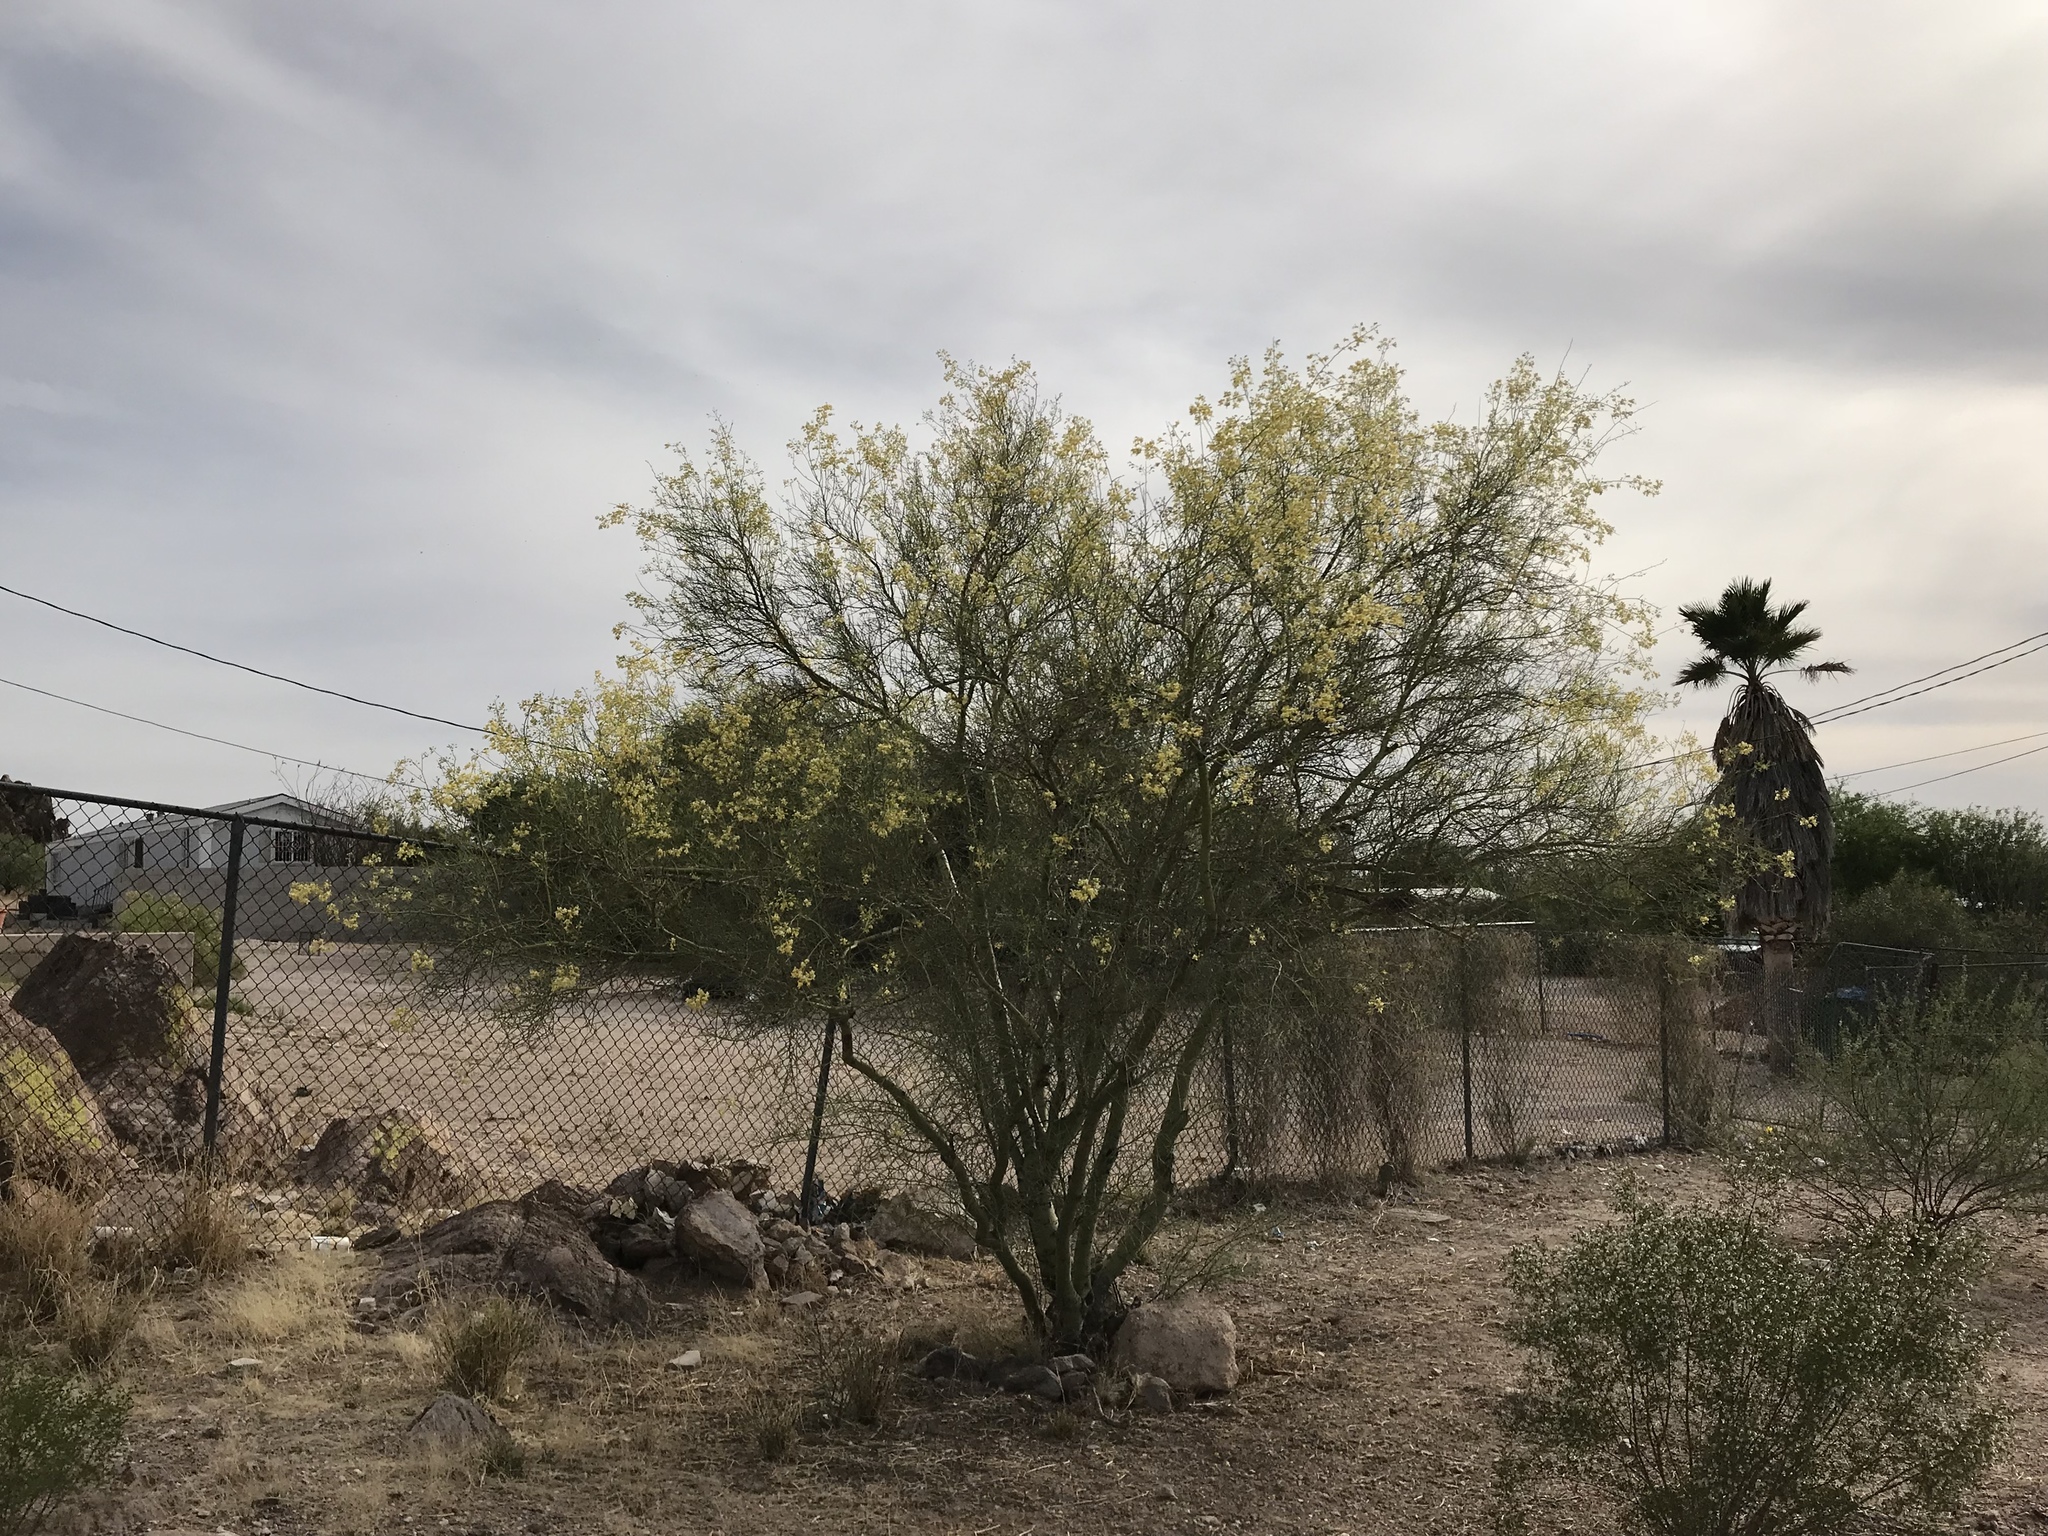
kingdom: Plantae
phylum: Tracheophyta
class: Magnoliopsida
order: Fabales
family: Fabaceae
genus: Parkinsonia
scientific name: Parkinsonia aculeata
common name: Jerusalem thorn
